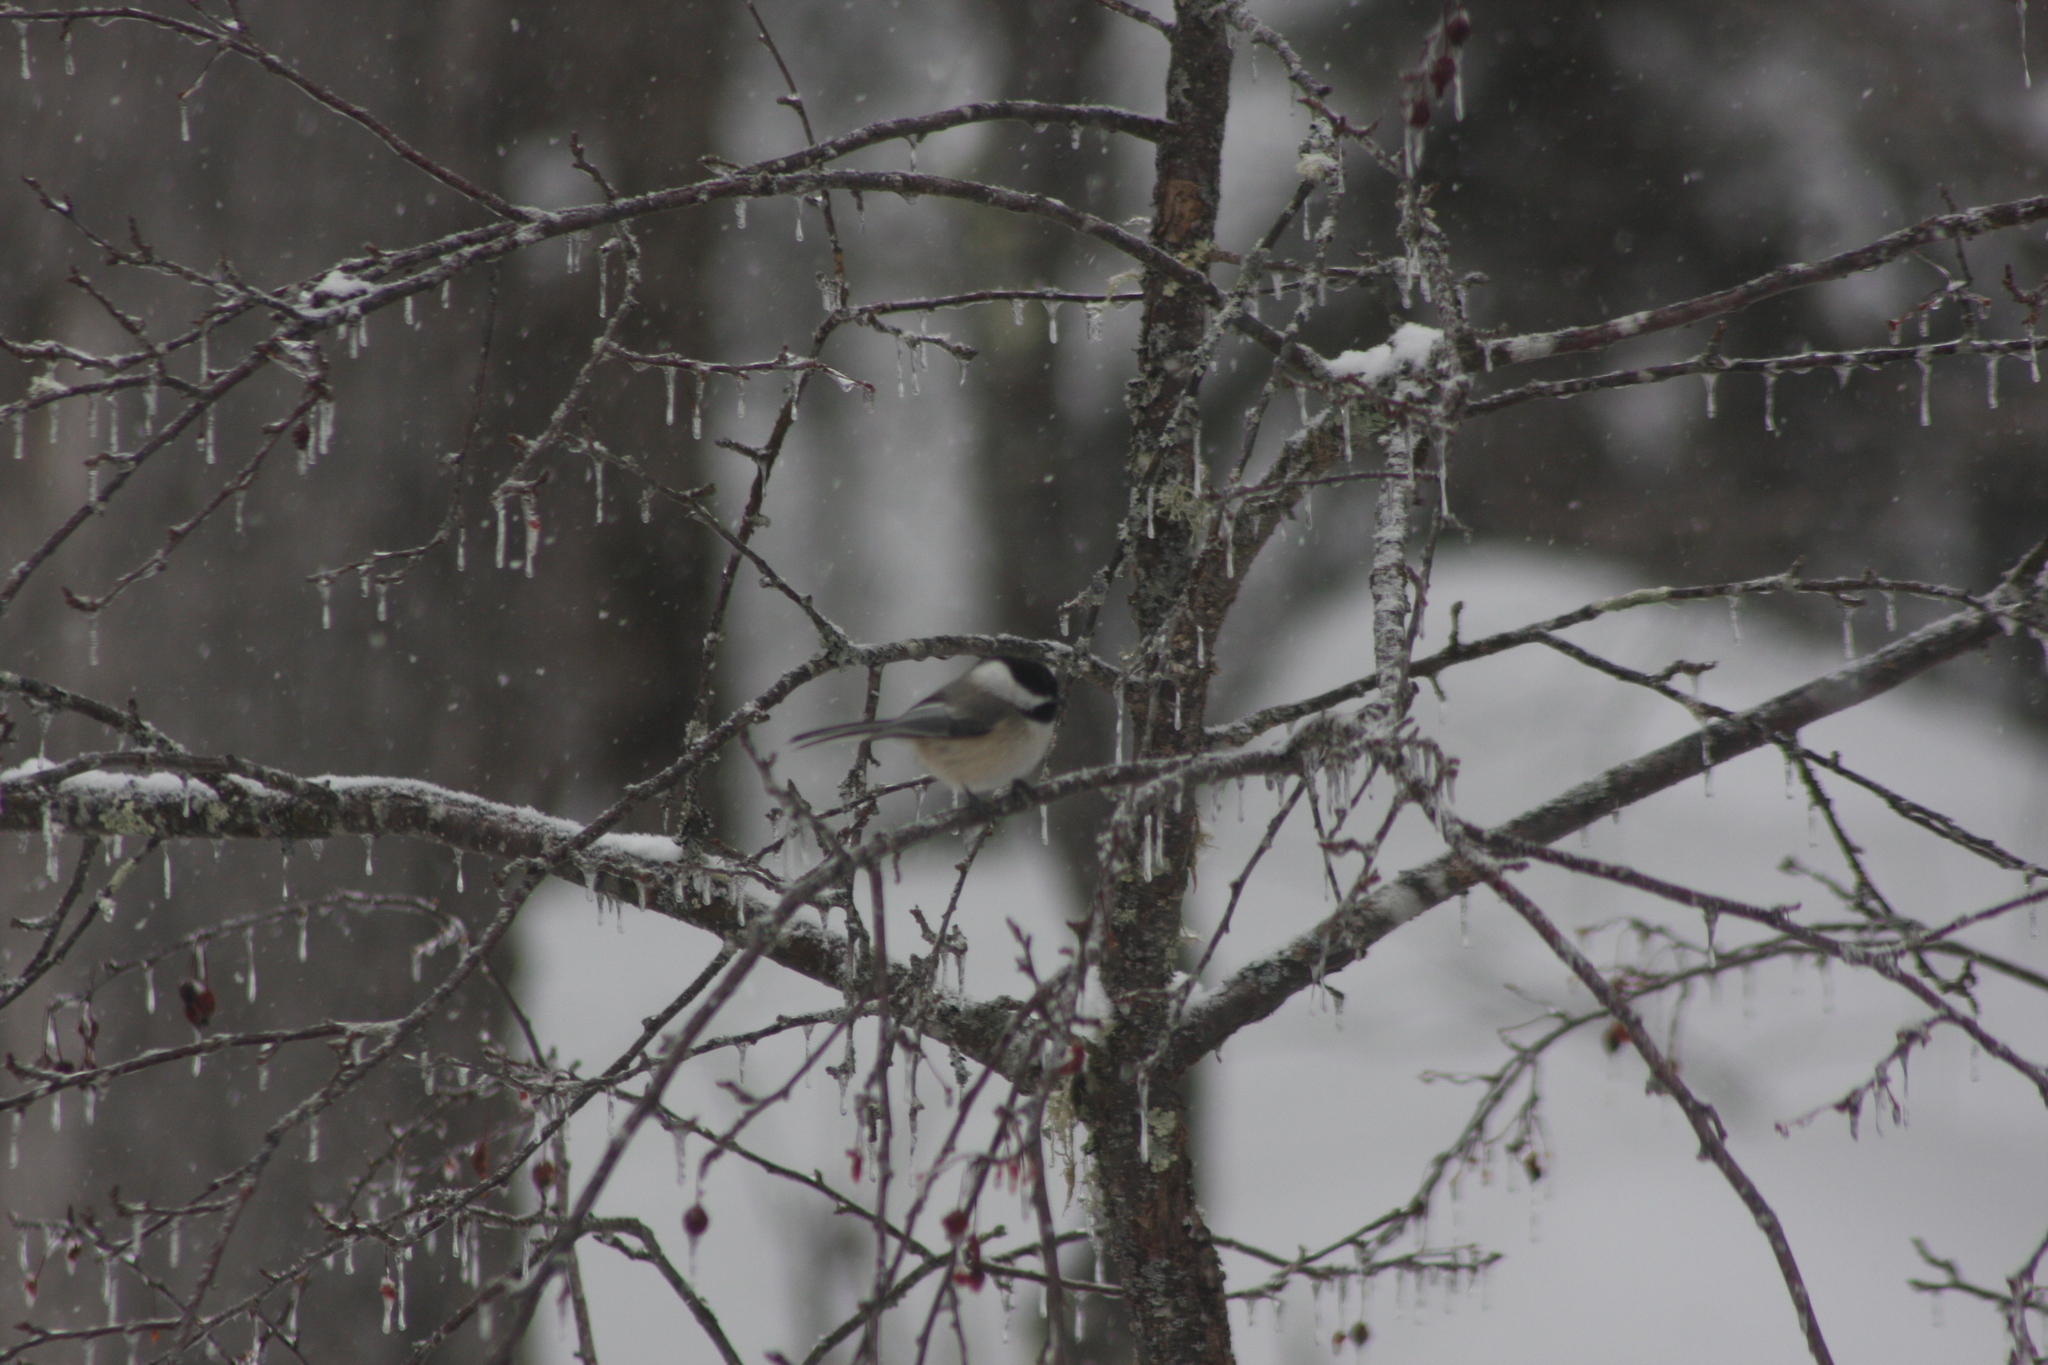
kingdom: Animalia
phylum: Chordata
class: Aves
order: Passeriformes
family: Paridae
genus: Poecile
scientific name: Poecile atricapillus
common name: Black-capped chickadee
